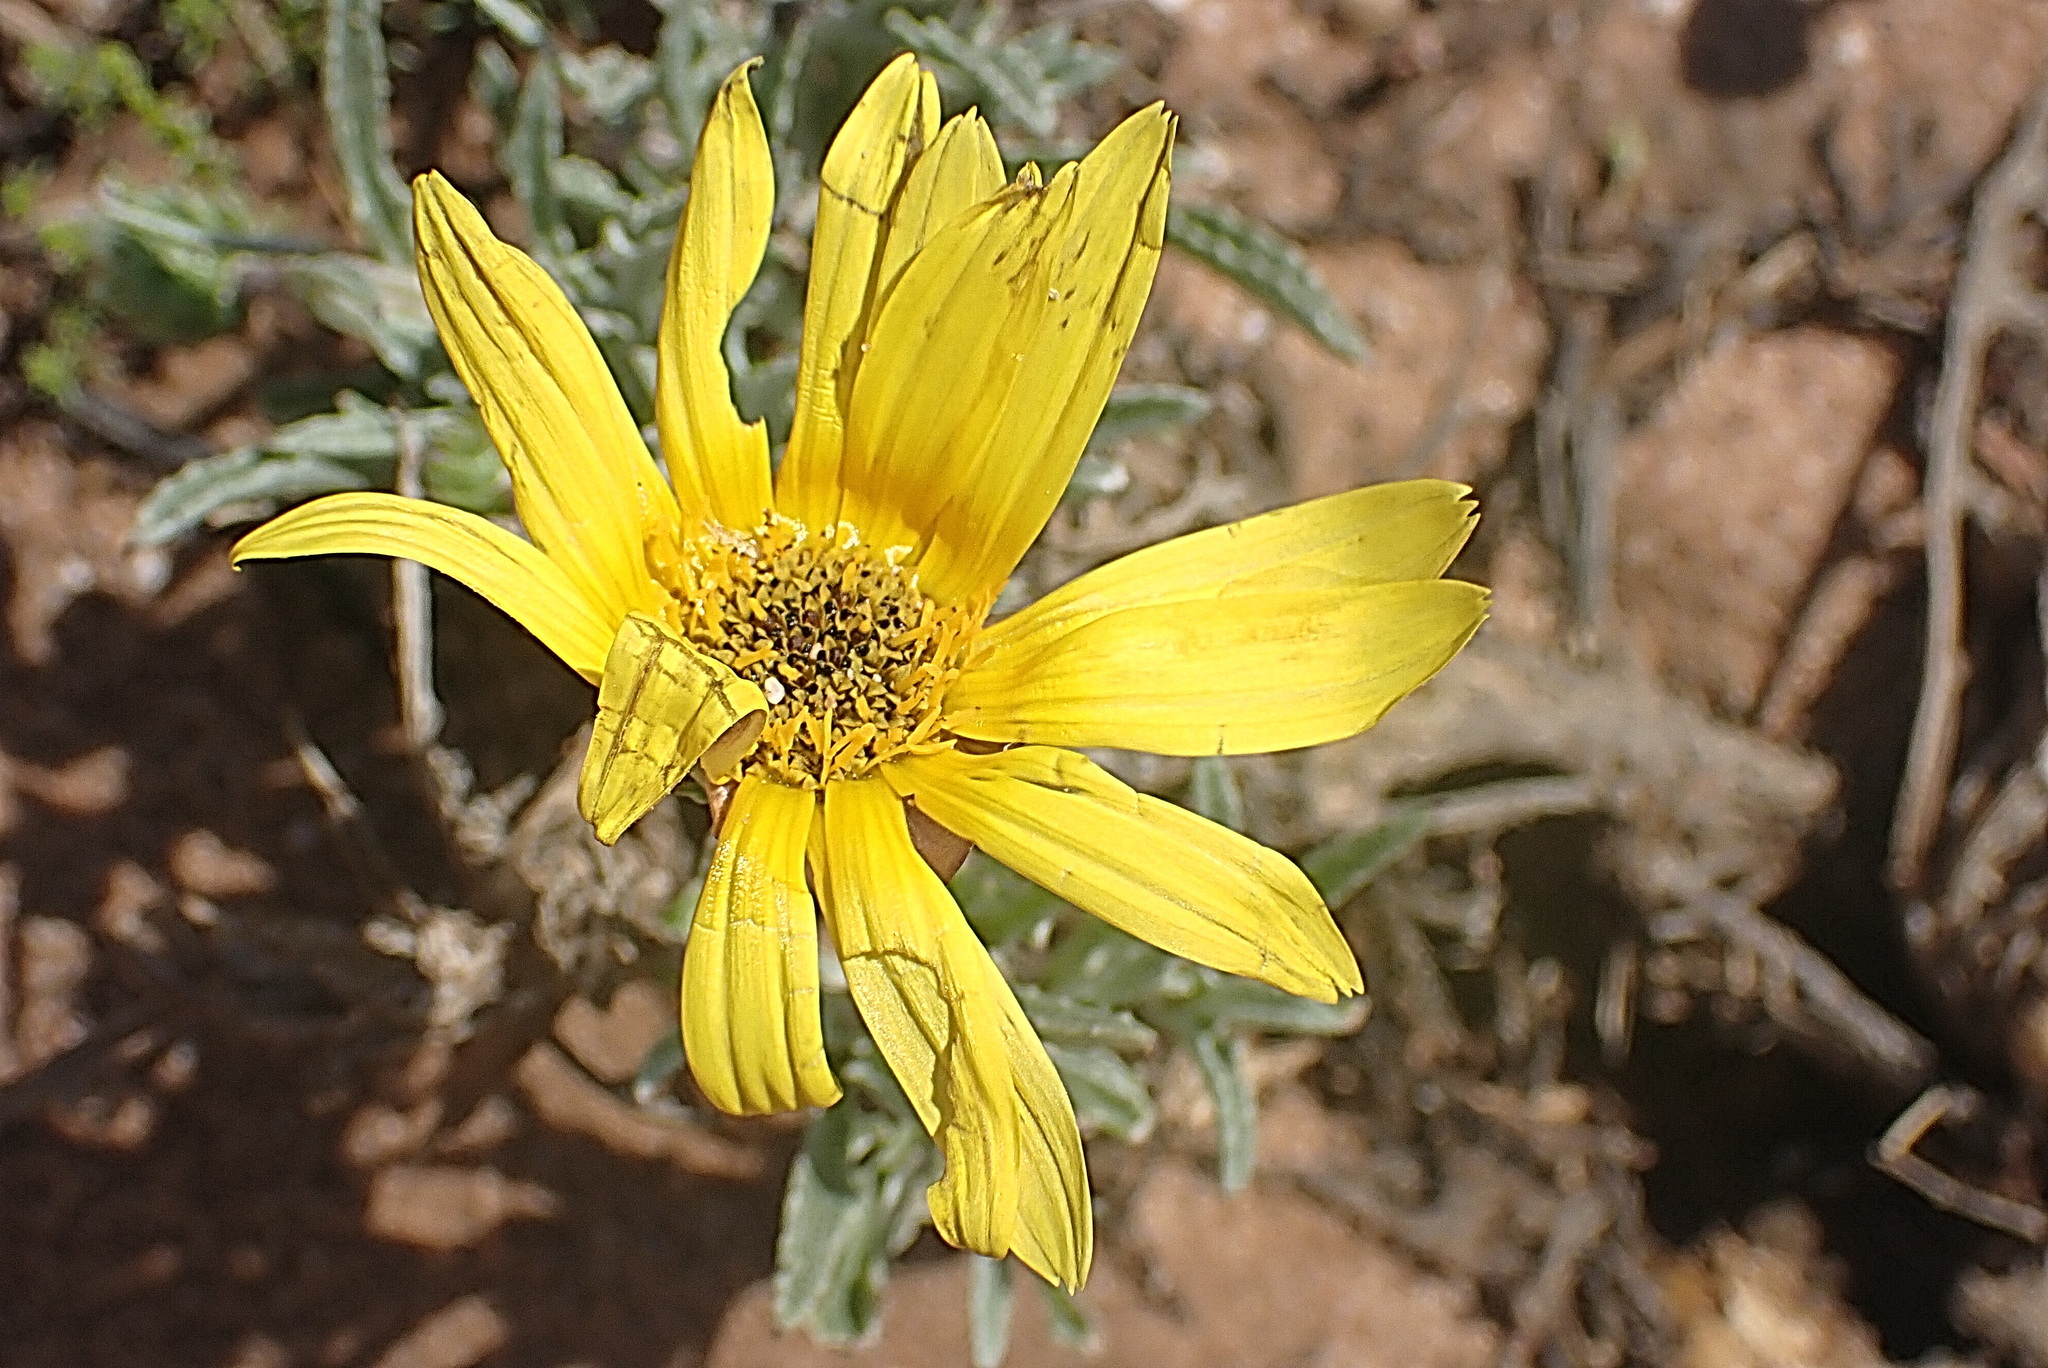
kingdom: Plantae
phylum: Tracheophyta
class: Magnoliopsida
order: Asterales
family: Asteraceae
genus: Arctotis
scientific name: Arctotis lanceolata
